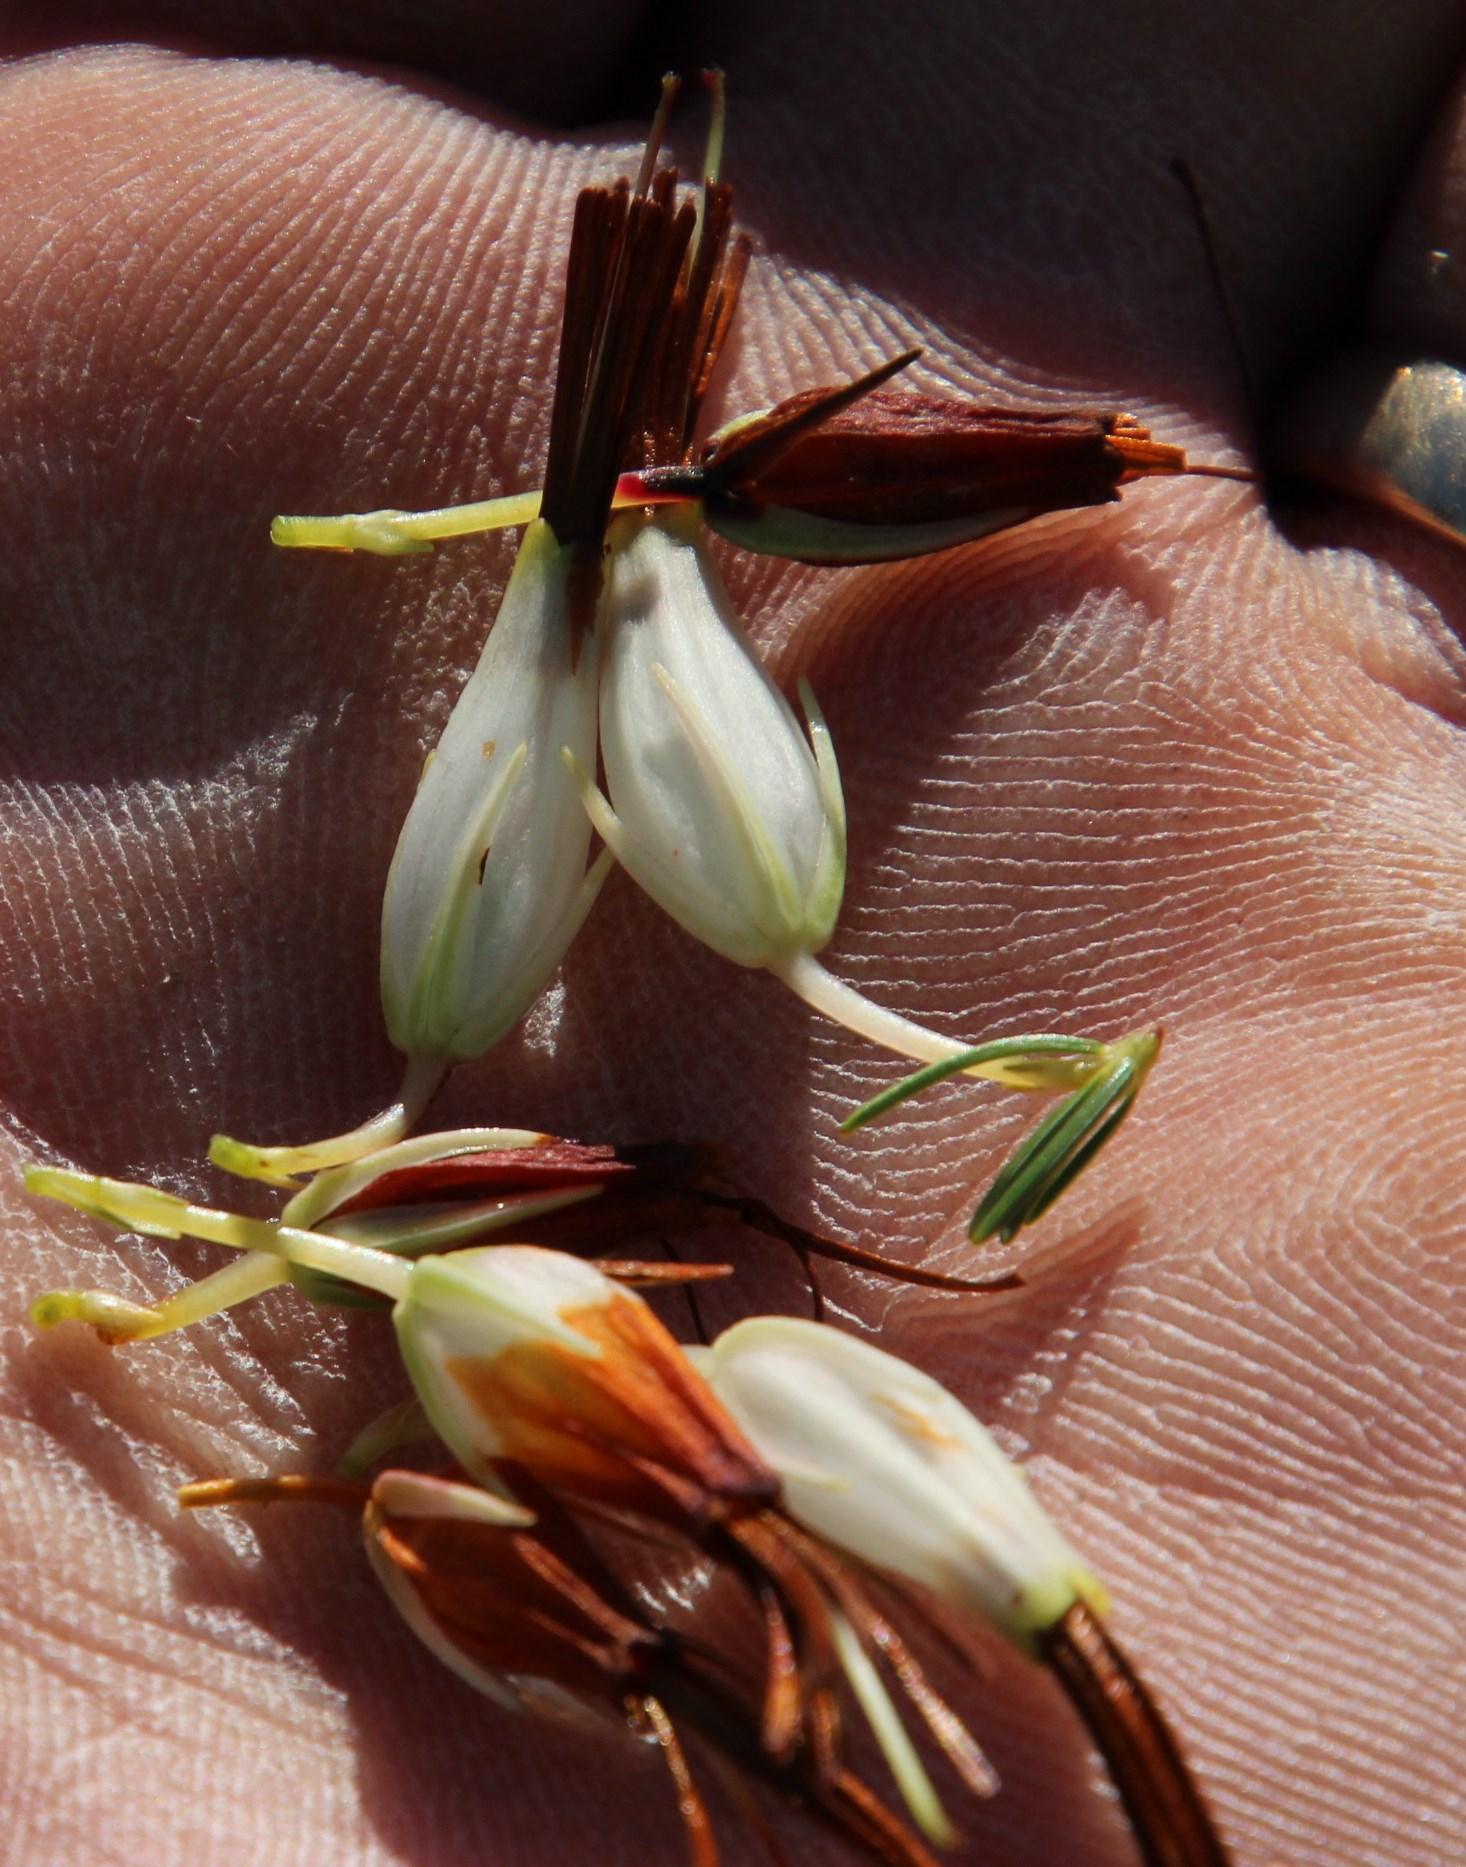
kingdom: Plantae
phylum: Tracheophyta
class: Magnoliopsida
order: Ericales
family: Ericaceae
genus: Erica
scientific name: Erica plukenetii
